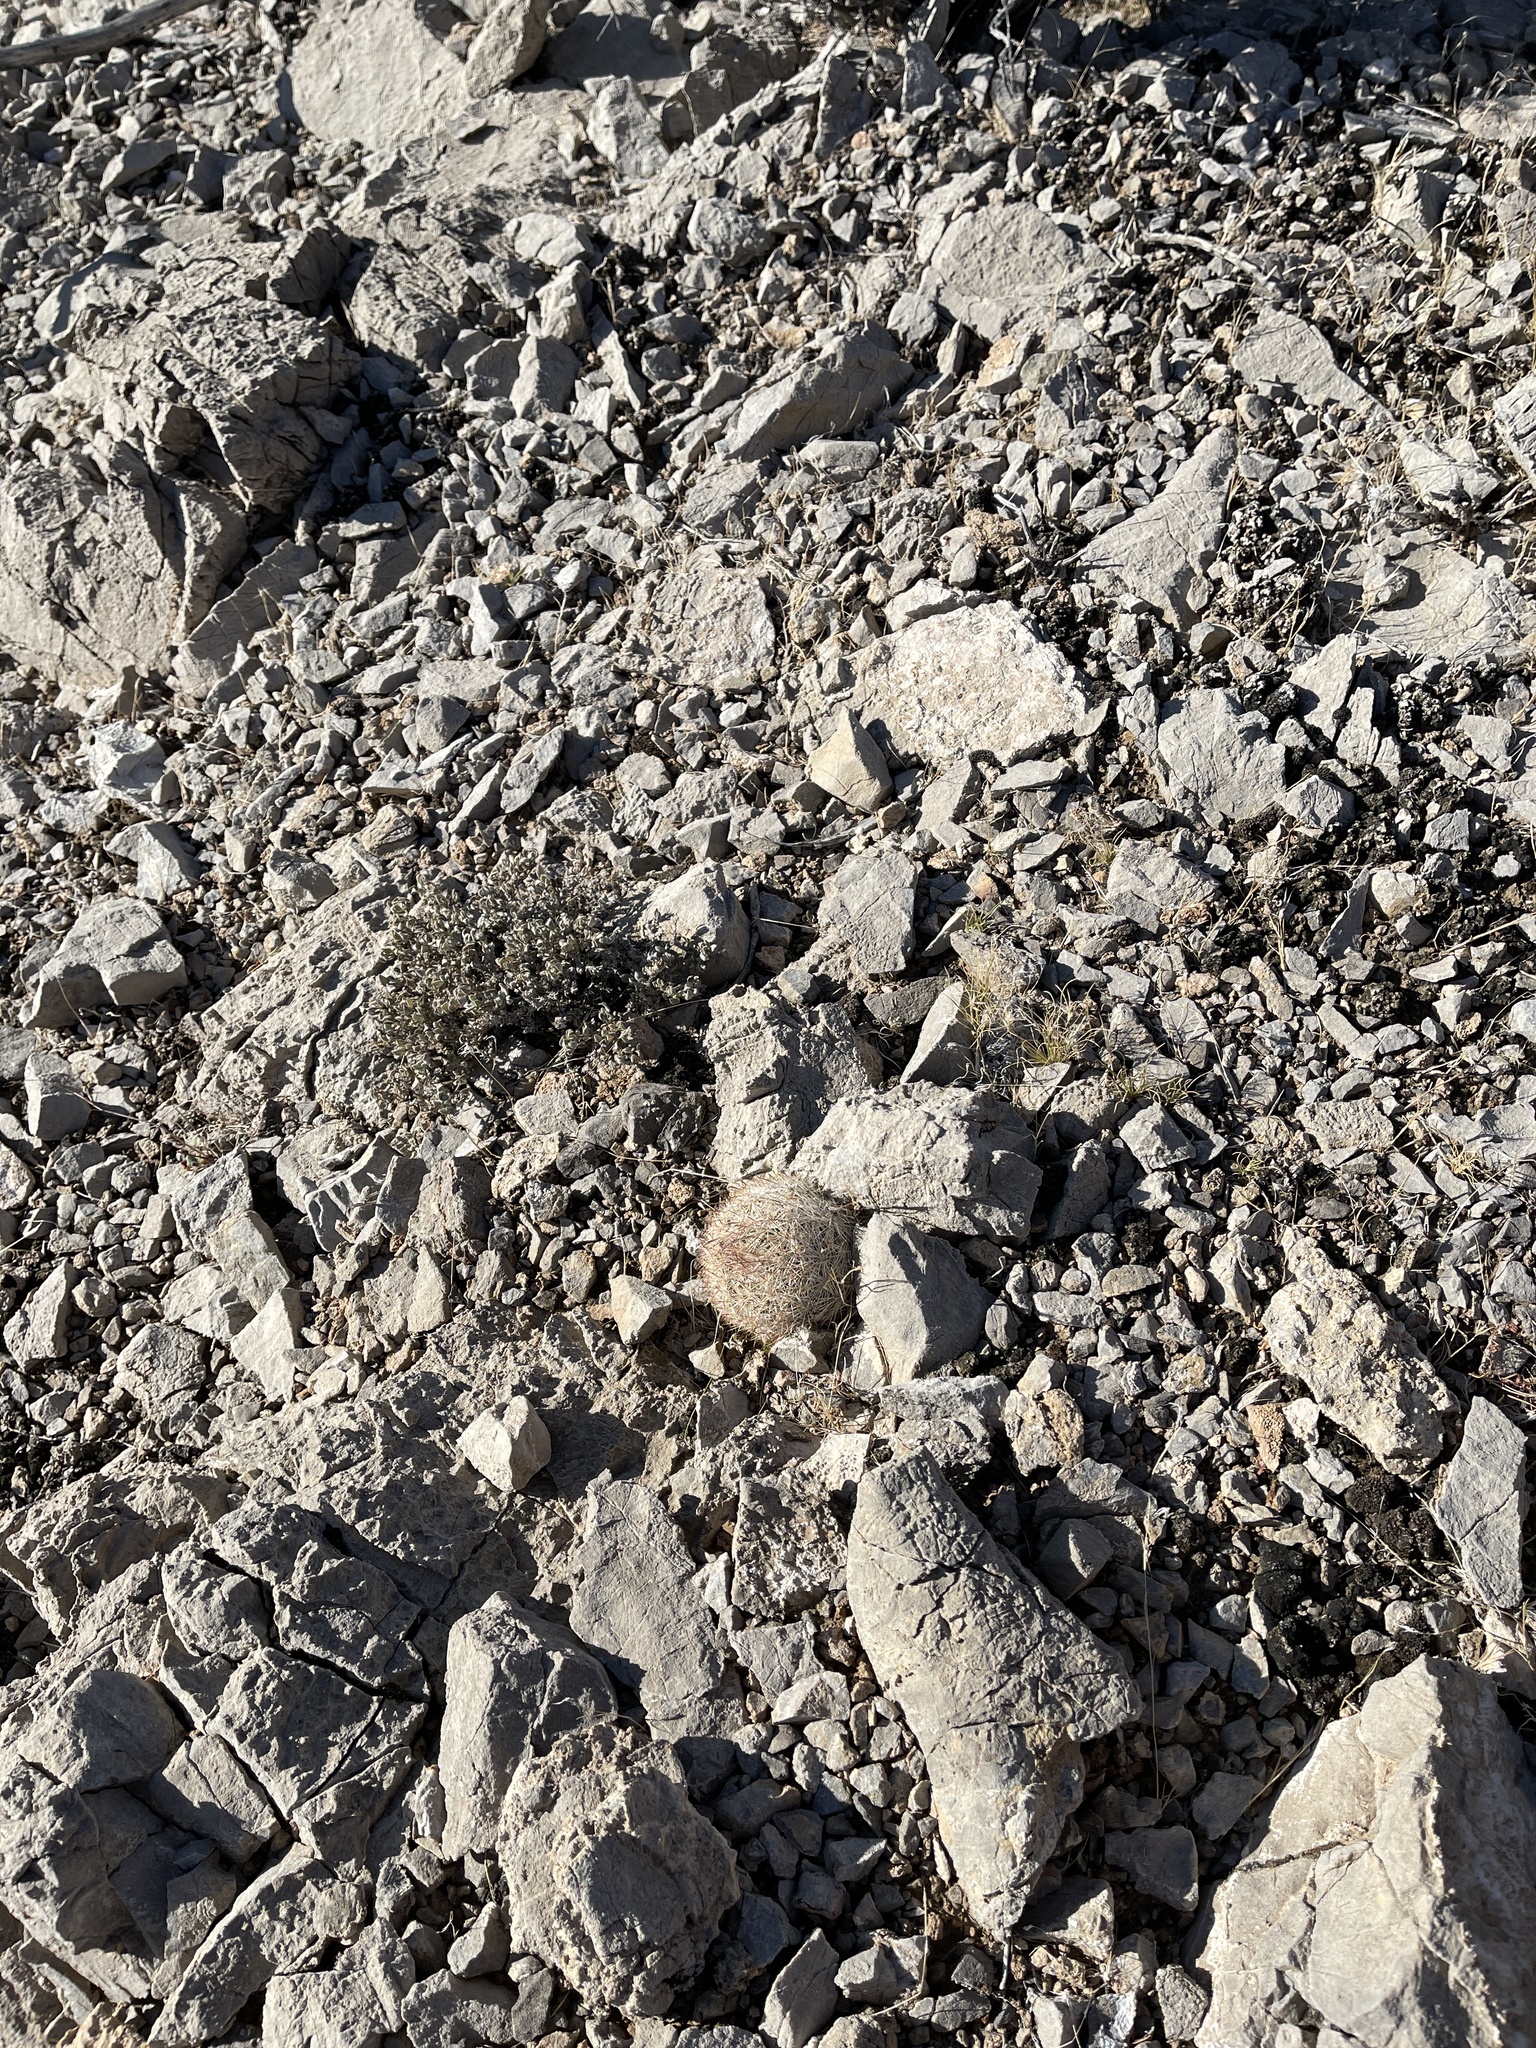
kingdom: Plantae
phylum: Tracheophyta
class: Magnoliopsida
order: Caryophyllales
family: Cactaceae
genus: Pelecyphora
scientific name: Pelecyphora dasyacantha
